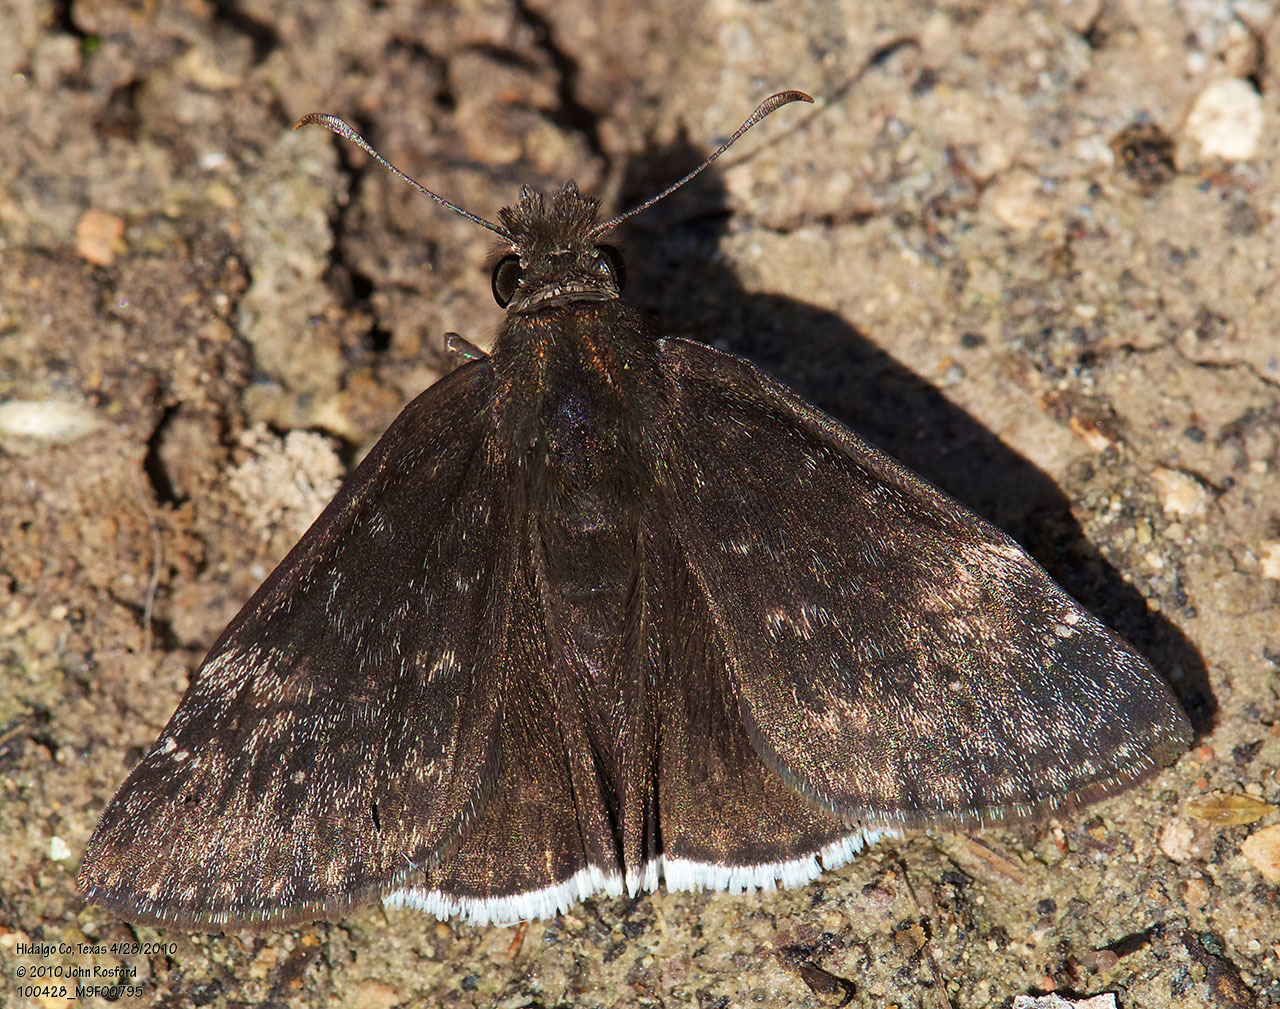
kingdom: Animalia
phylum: Arthropoda
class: Insecta
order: Lepidoptera
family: Hesperiidae
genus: Erynnis
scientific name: Erynnis funeralis
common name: Funereal duskywing
